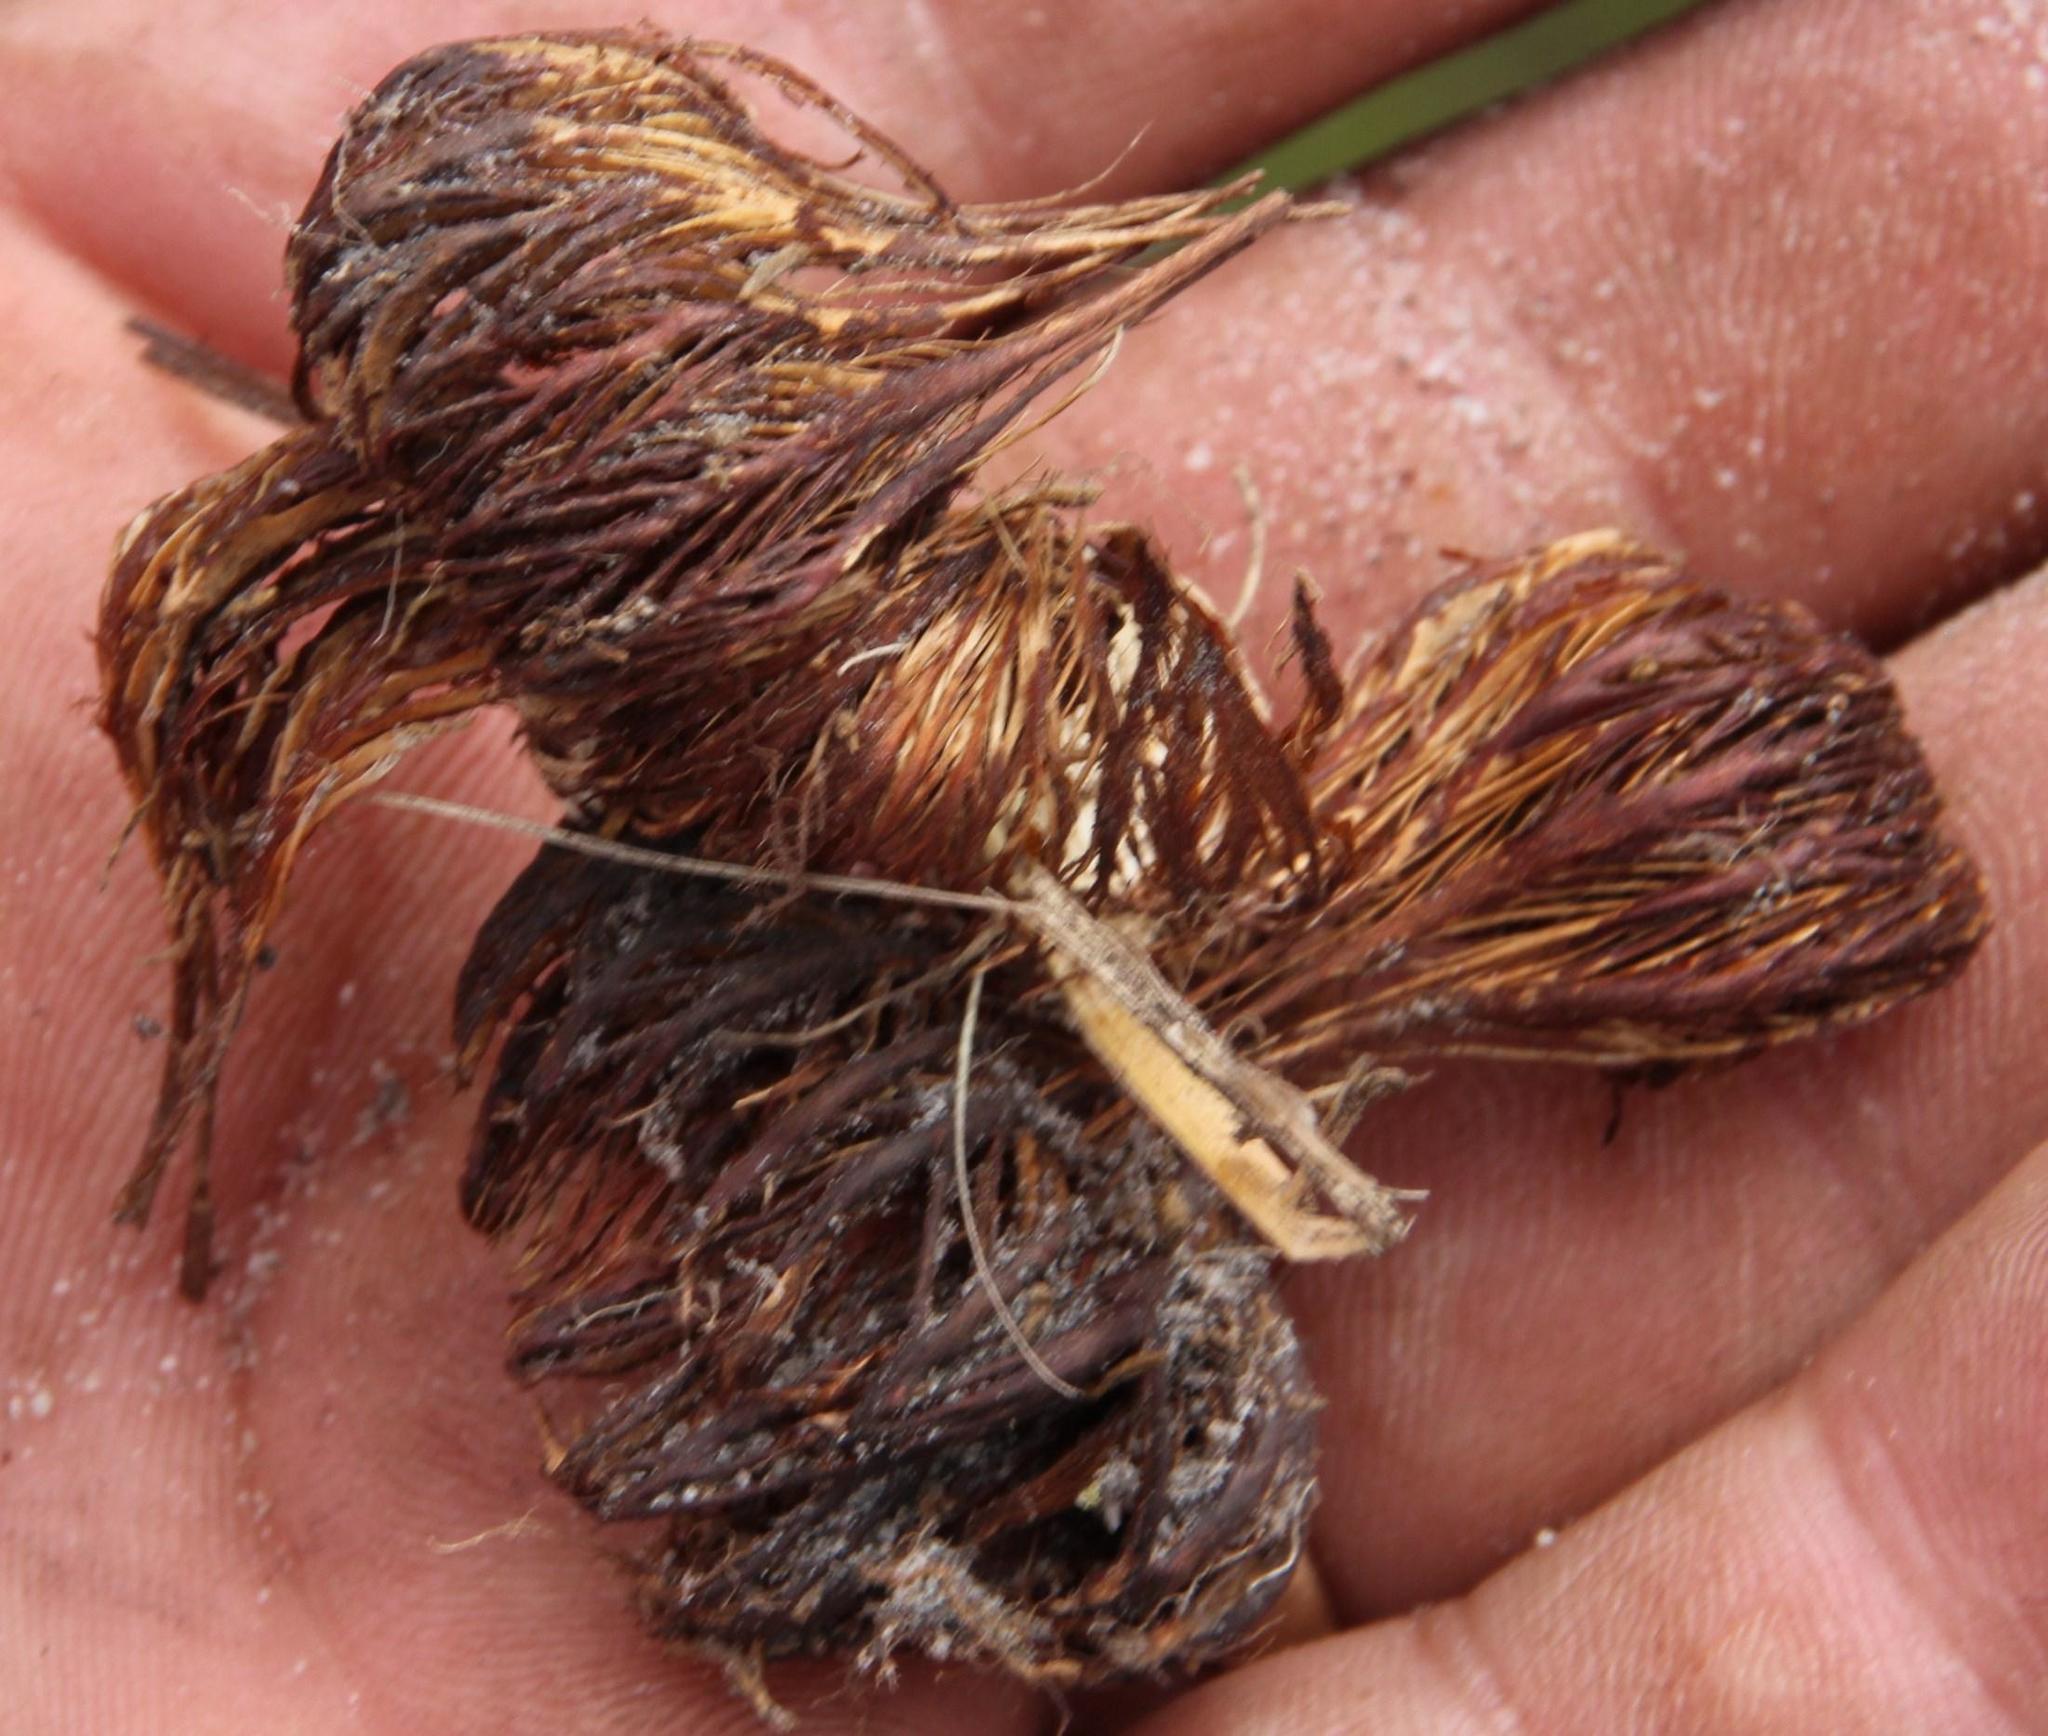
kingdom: Animalia
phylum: Chordata
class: Mammalia
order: Rodentia
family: Hystricidae
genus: Hystrix
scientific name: Hystrix africaeaustralis
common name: Cape porcupine
